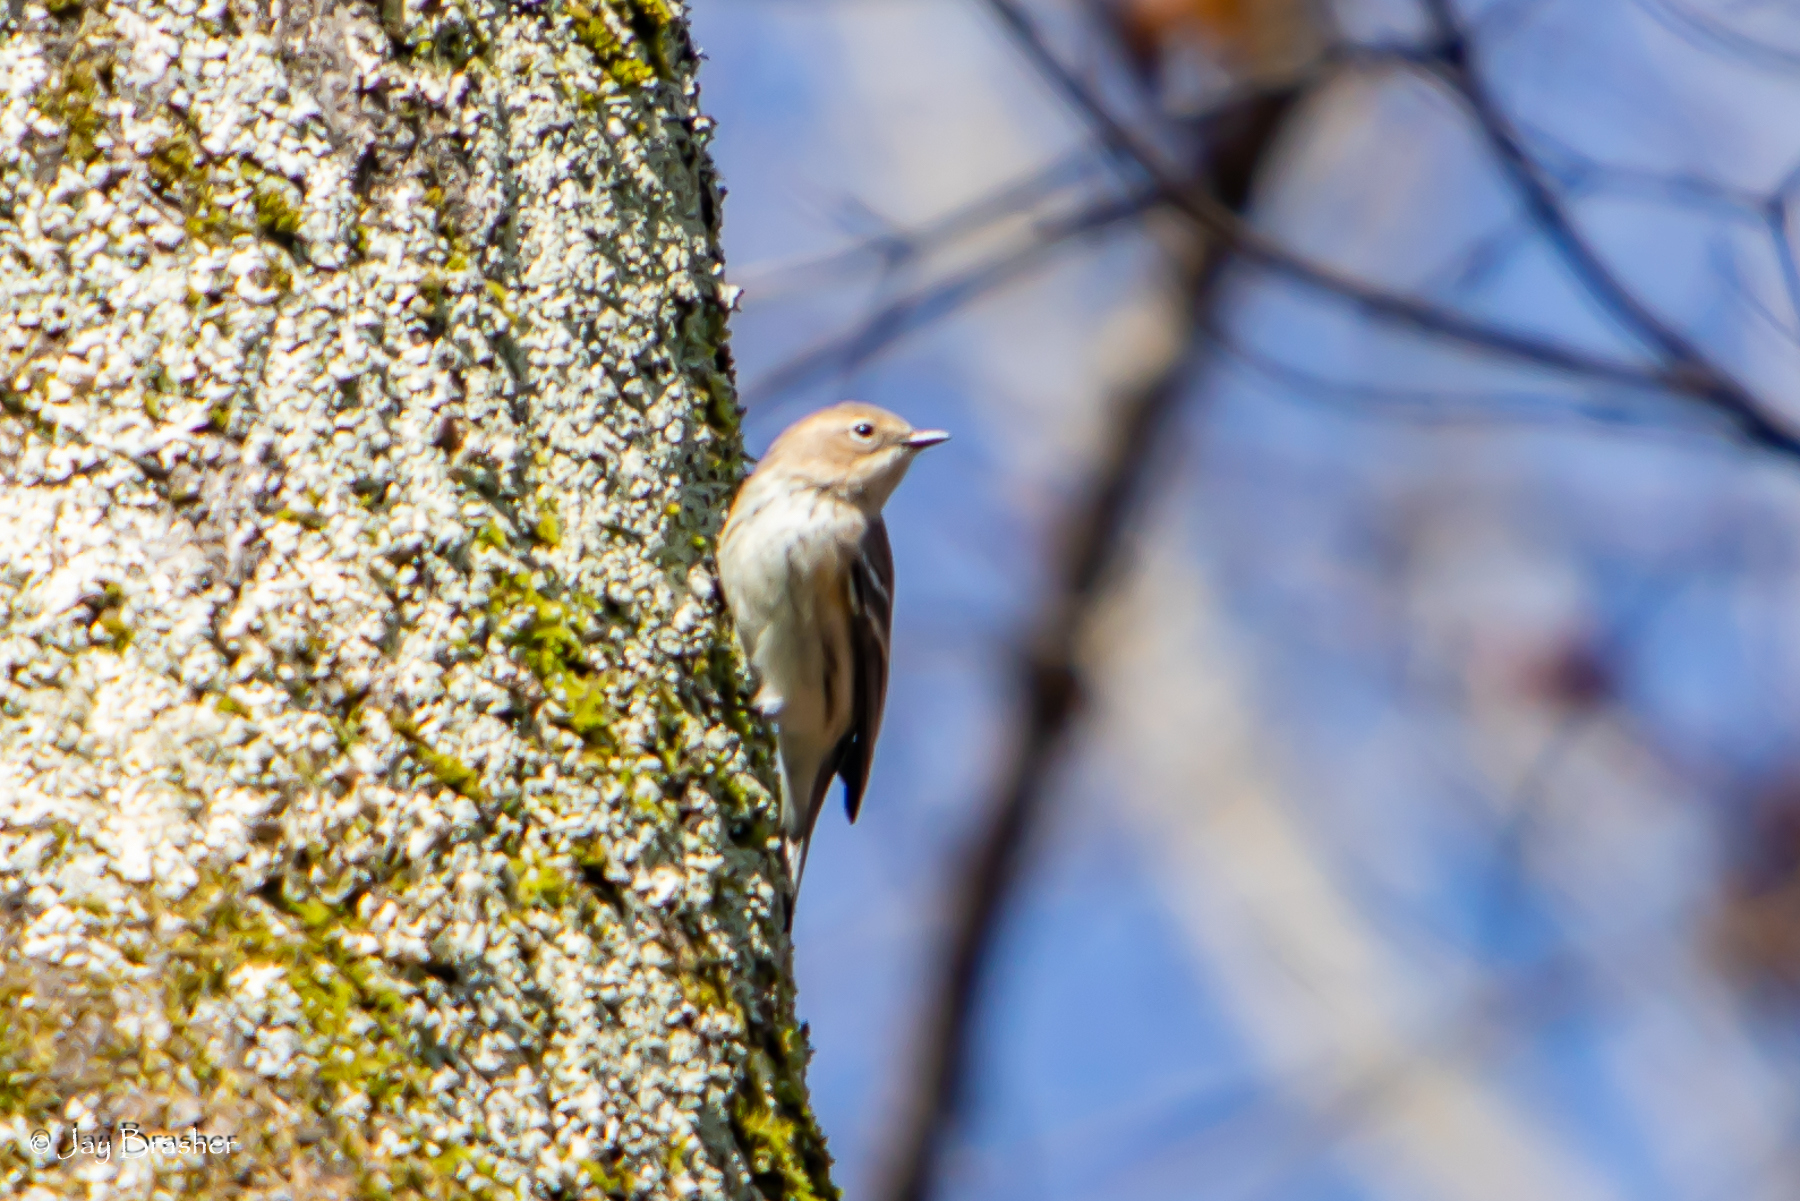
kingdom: Animalia
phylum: Chordata
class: Aves
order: Passeriformes
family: Parulidae
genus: Setophaga
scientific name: Setophaga coronata
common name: Myrtle warbler
